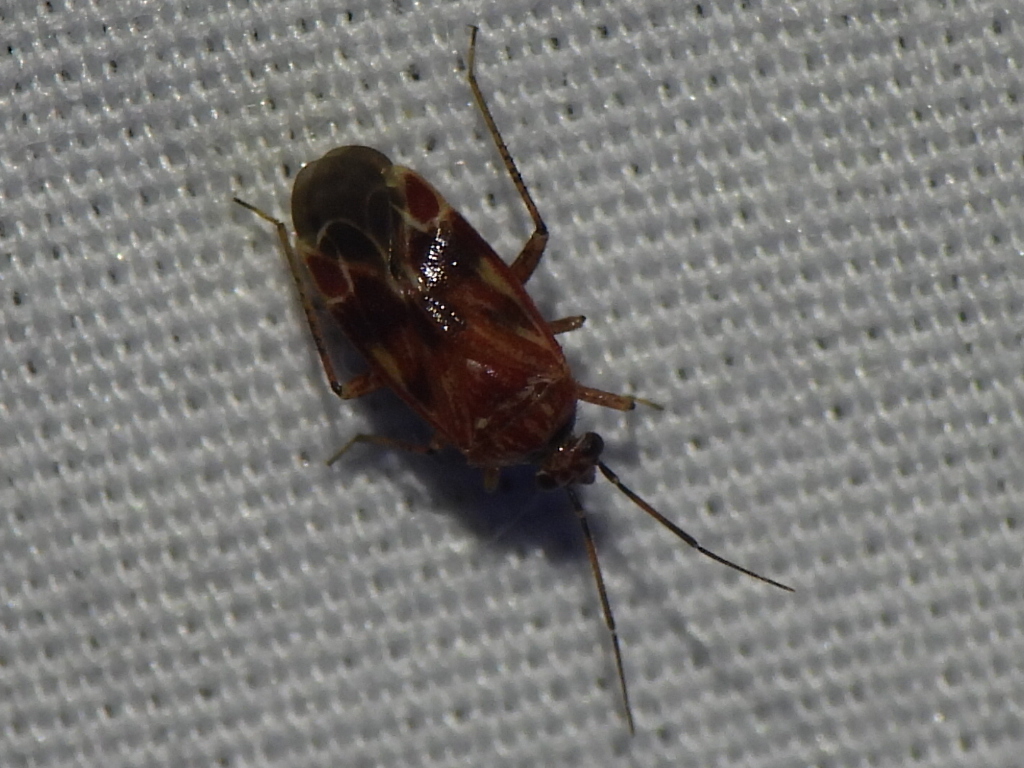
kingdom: Animalia
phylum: Arthropoda
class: Insecta
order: Hemiptera
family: Miridae
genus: Plagiognathus
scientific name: Plagiognathus grandis
